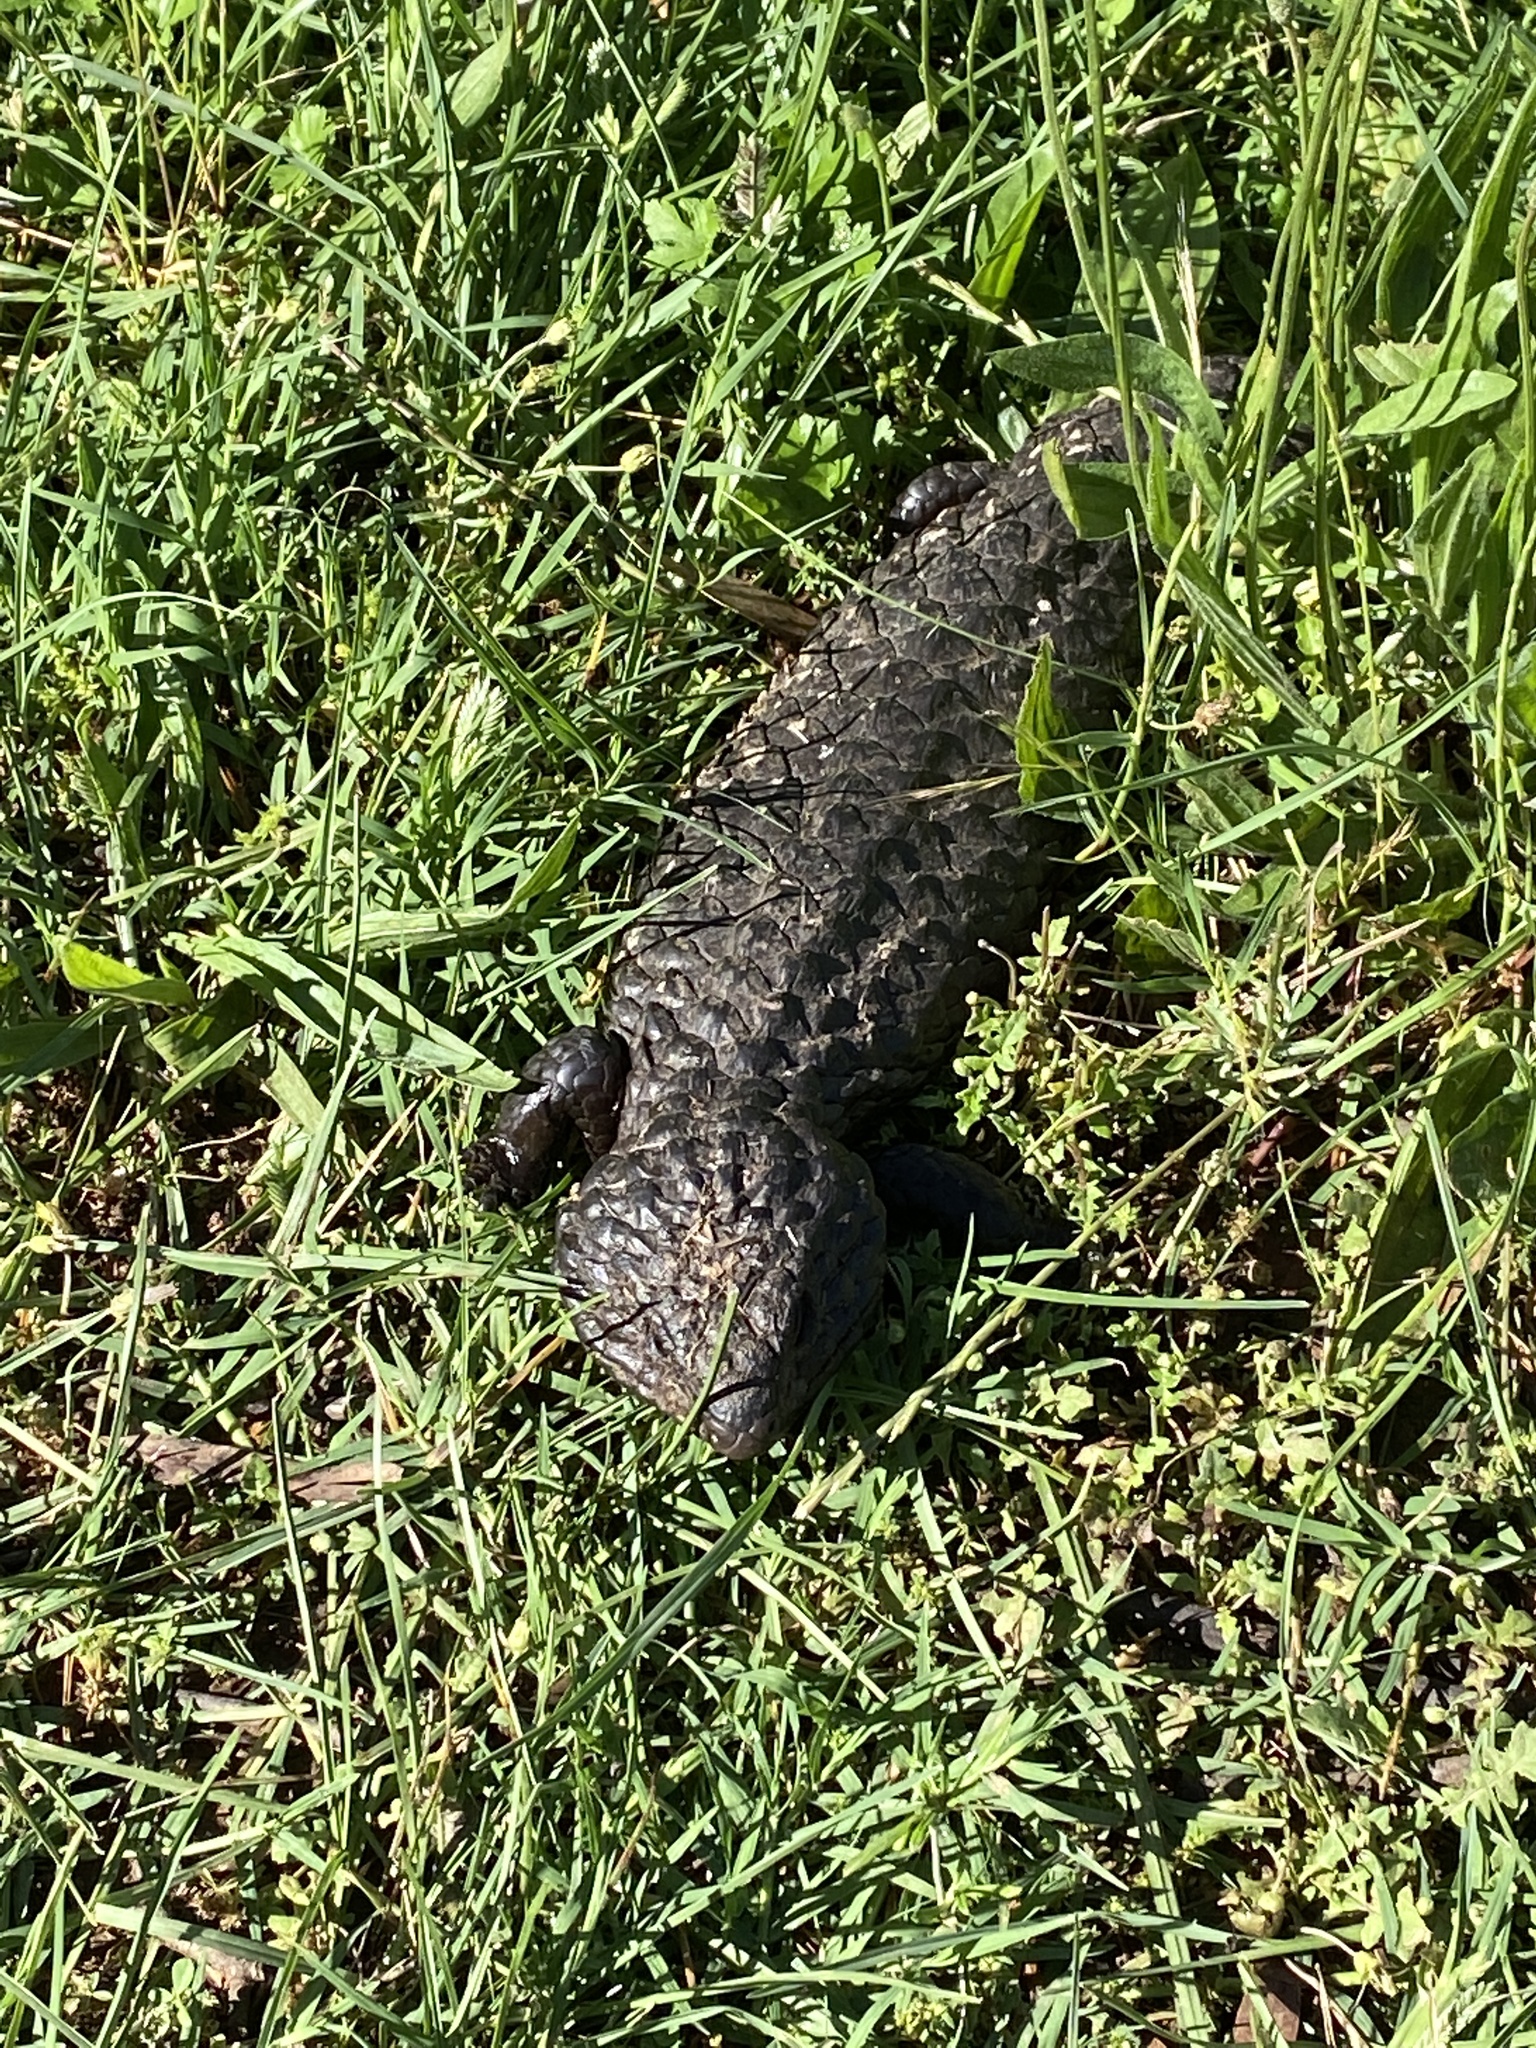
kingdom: Animalia
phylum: Chordata
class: Squamata
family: Scincidae
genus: Tiliqua
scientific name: Tiliqua rugosa
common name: Pinecone lizard
